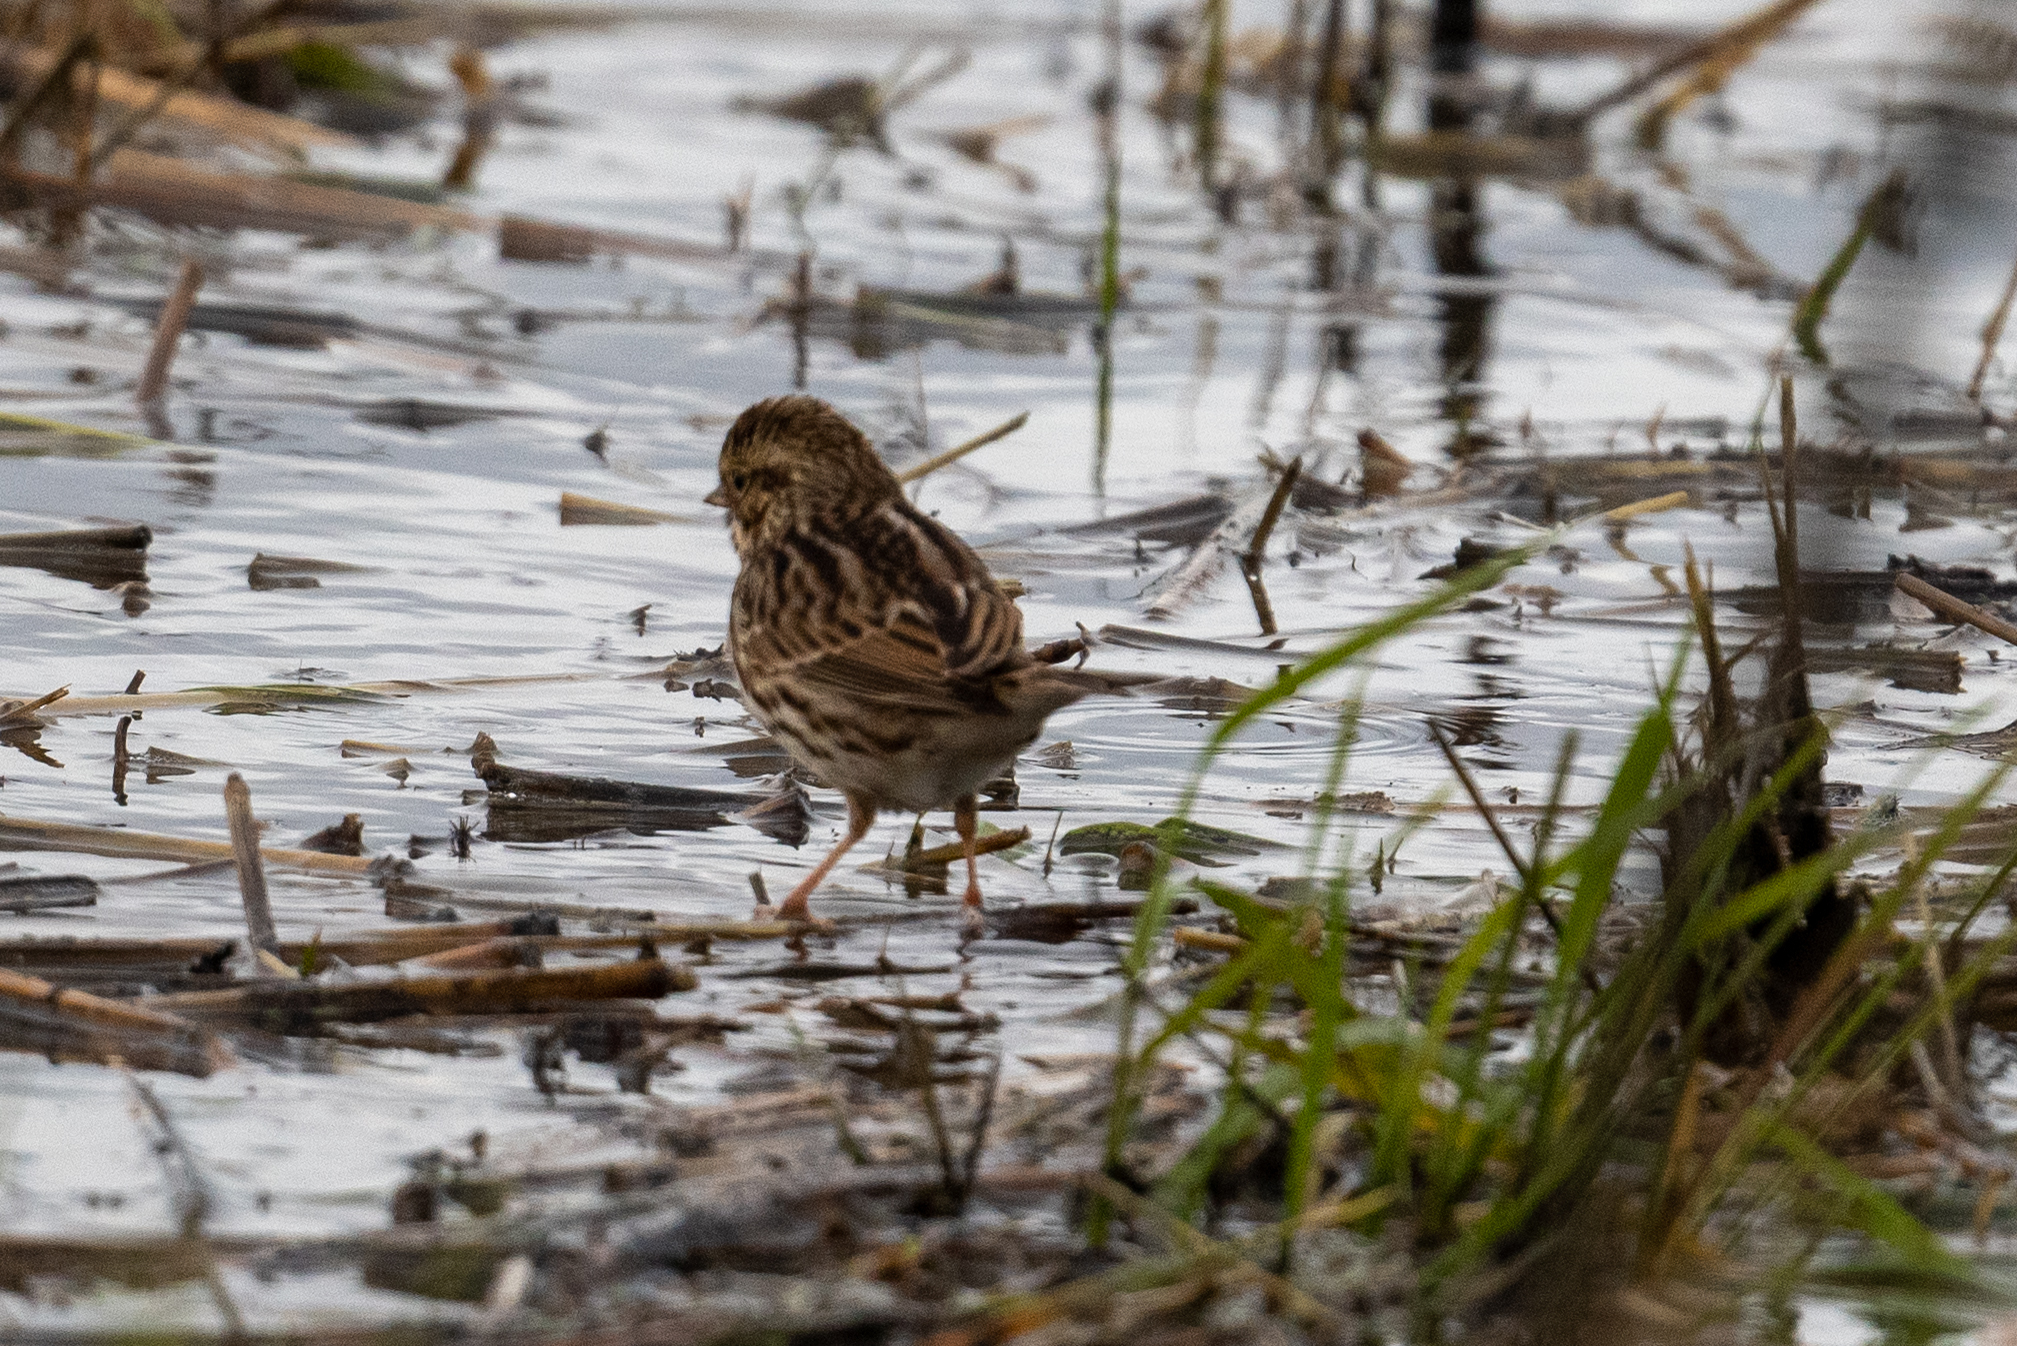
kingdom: Animalia
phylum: Chordata
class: Aves
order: Passeriformes
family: Passerellidae
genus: Passerculus
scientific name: Passerculus sandwichensis
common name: Savannah sparrow
